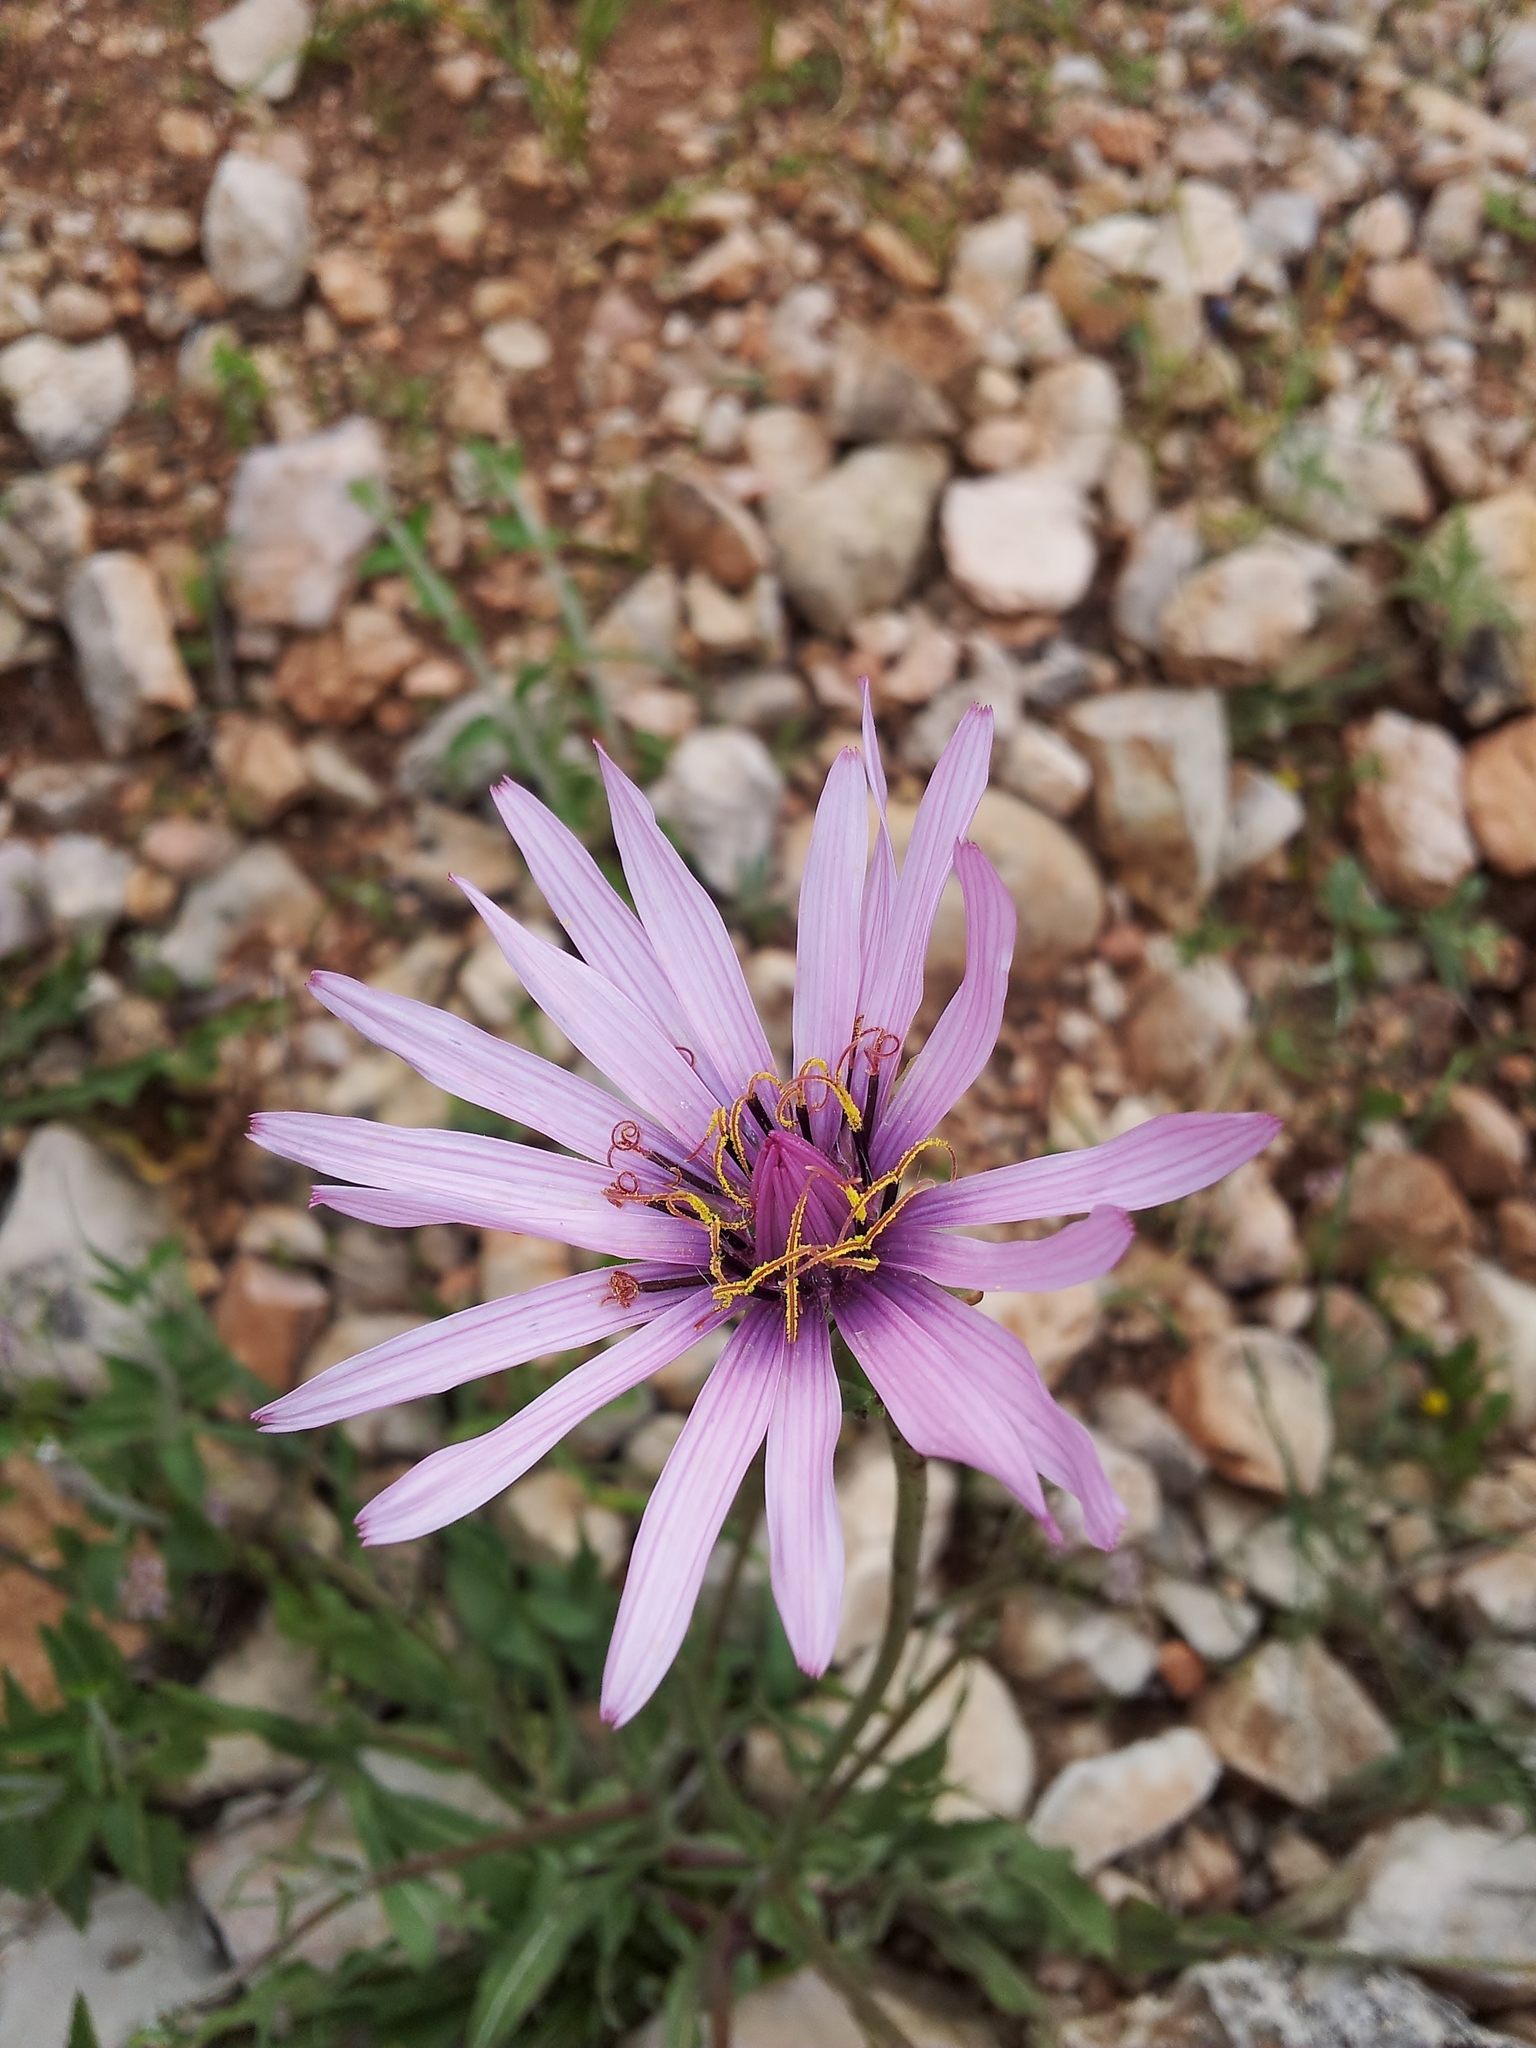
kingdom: Plantae
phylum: Tracheophyta
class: Magnoliopsida
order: Asterales
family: Asteraceae
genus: Pseudopodospermum
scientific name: Pseudopodospermum papposum
